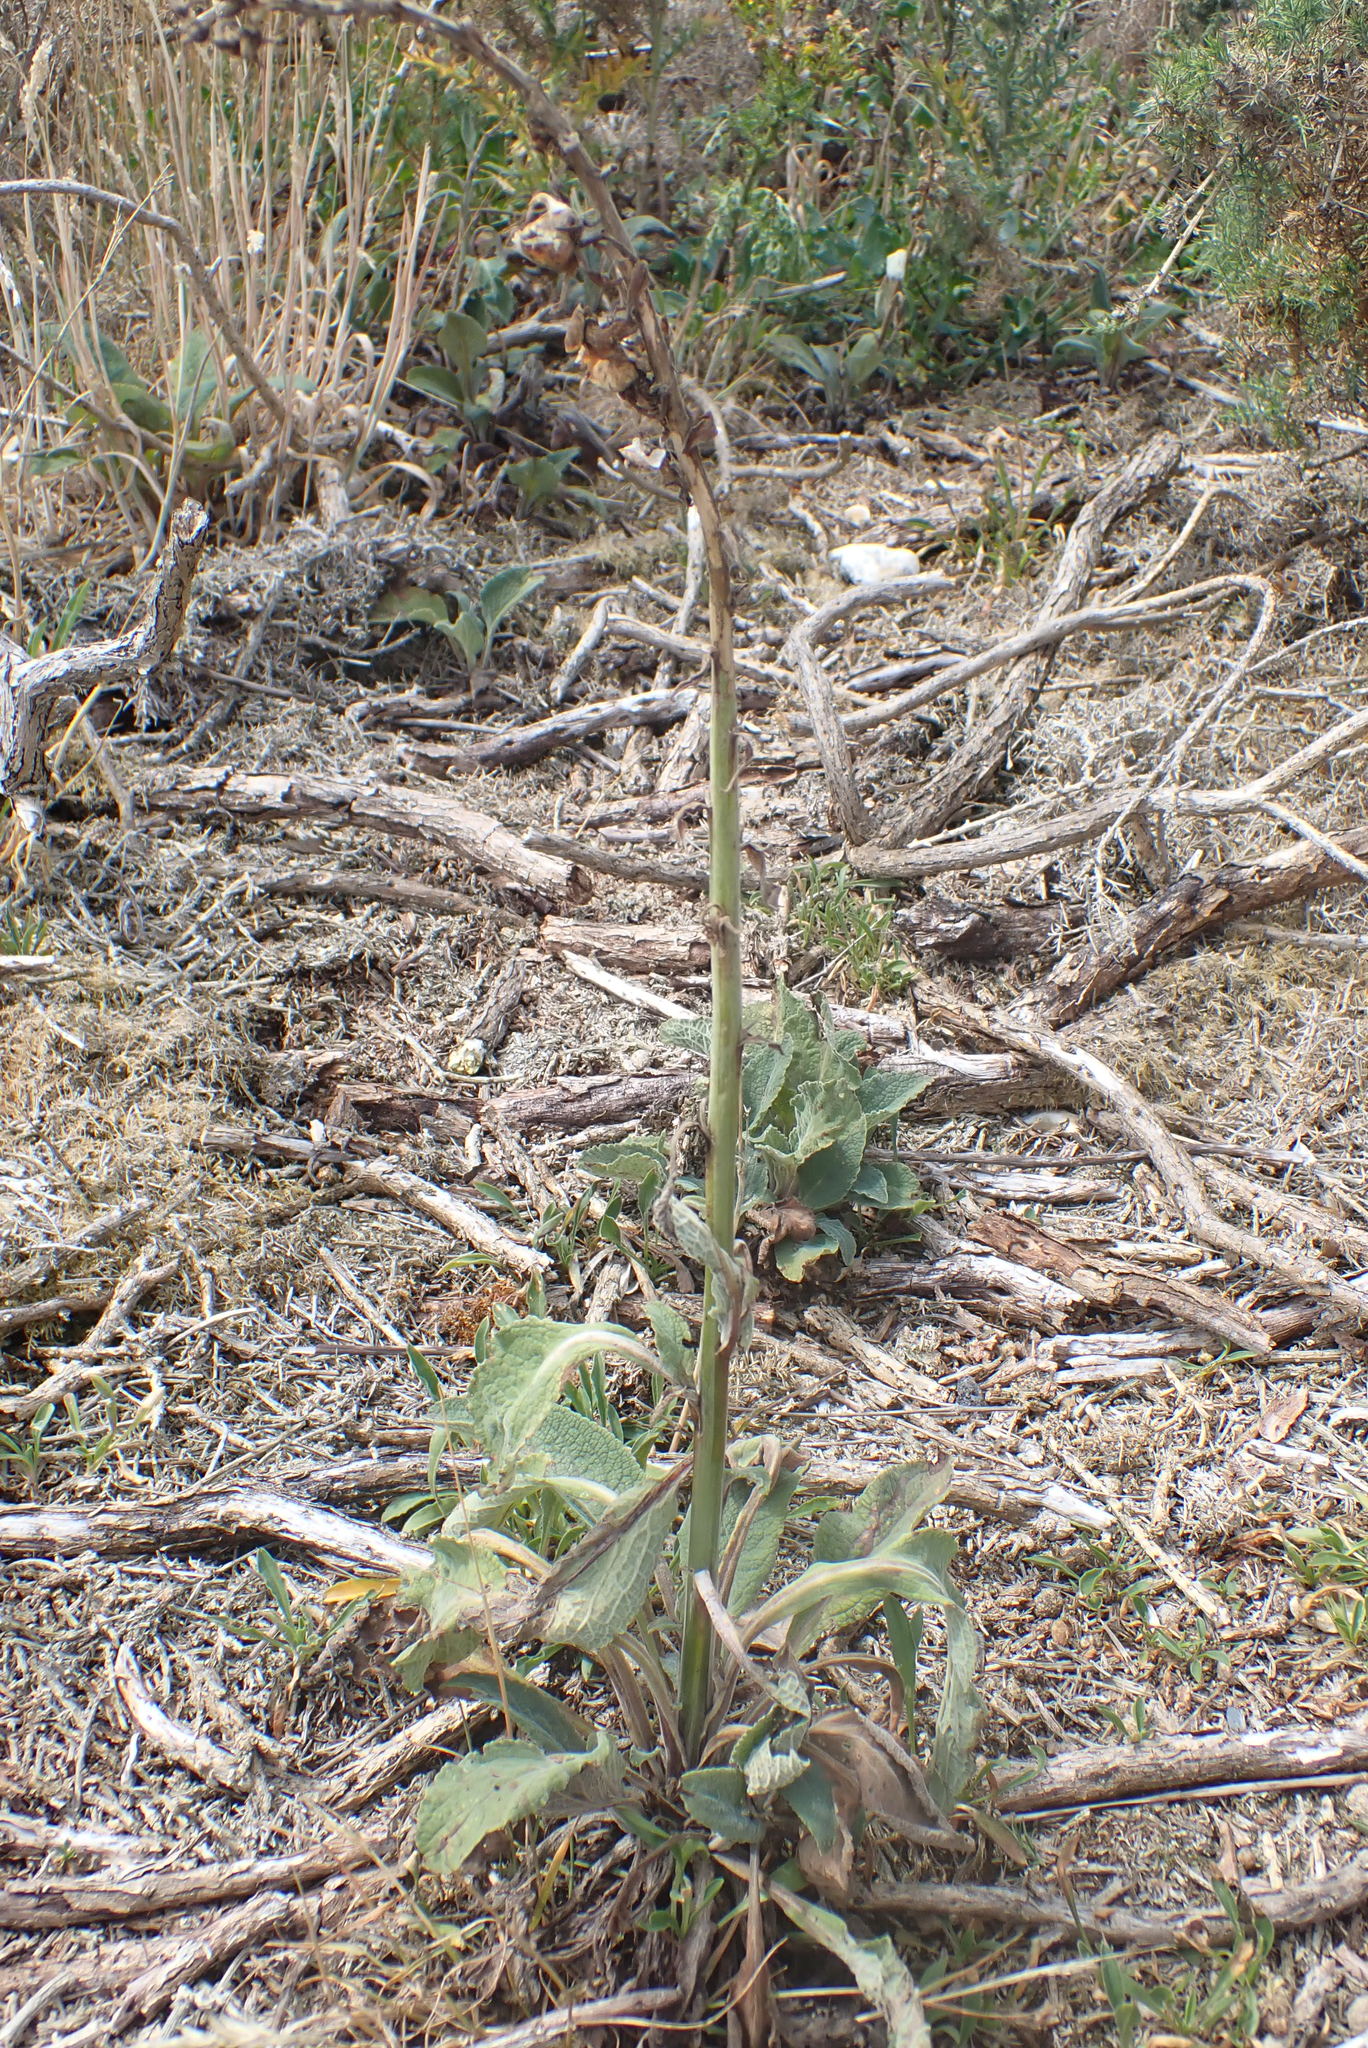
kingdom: Plantae
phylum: Tracheophyta
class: Magnoliopsida
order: Lamiales
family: Plantaginaceae
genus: Digitalis
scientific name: Digitalis purpurea
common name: Foxglove
